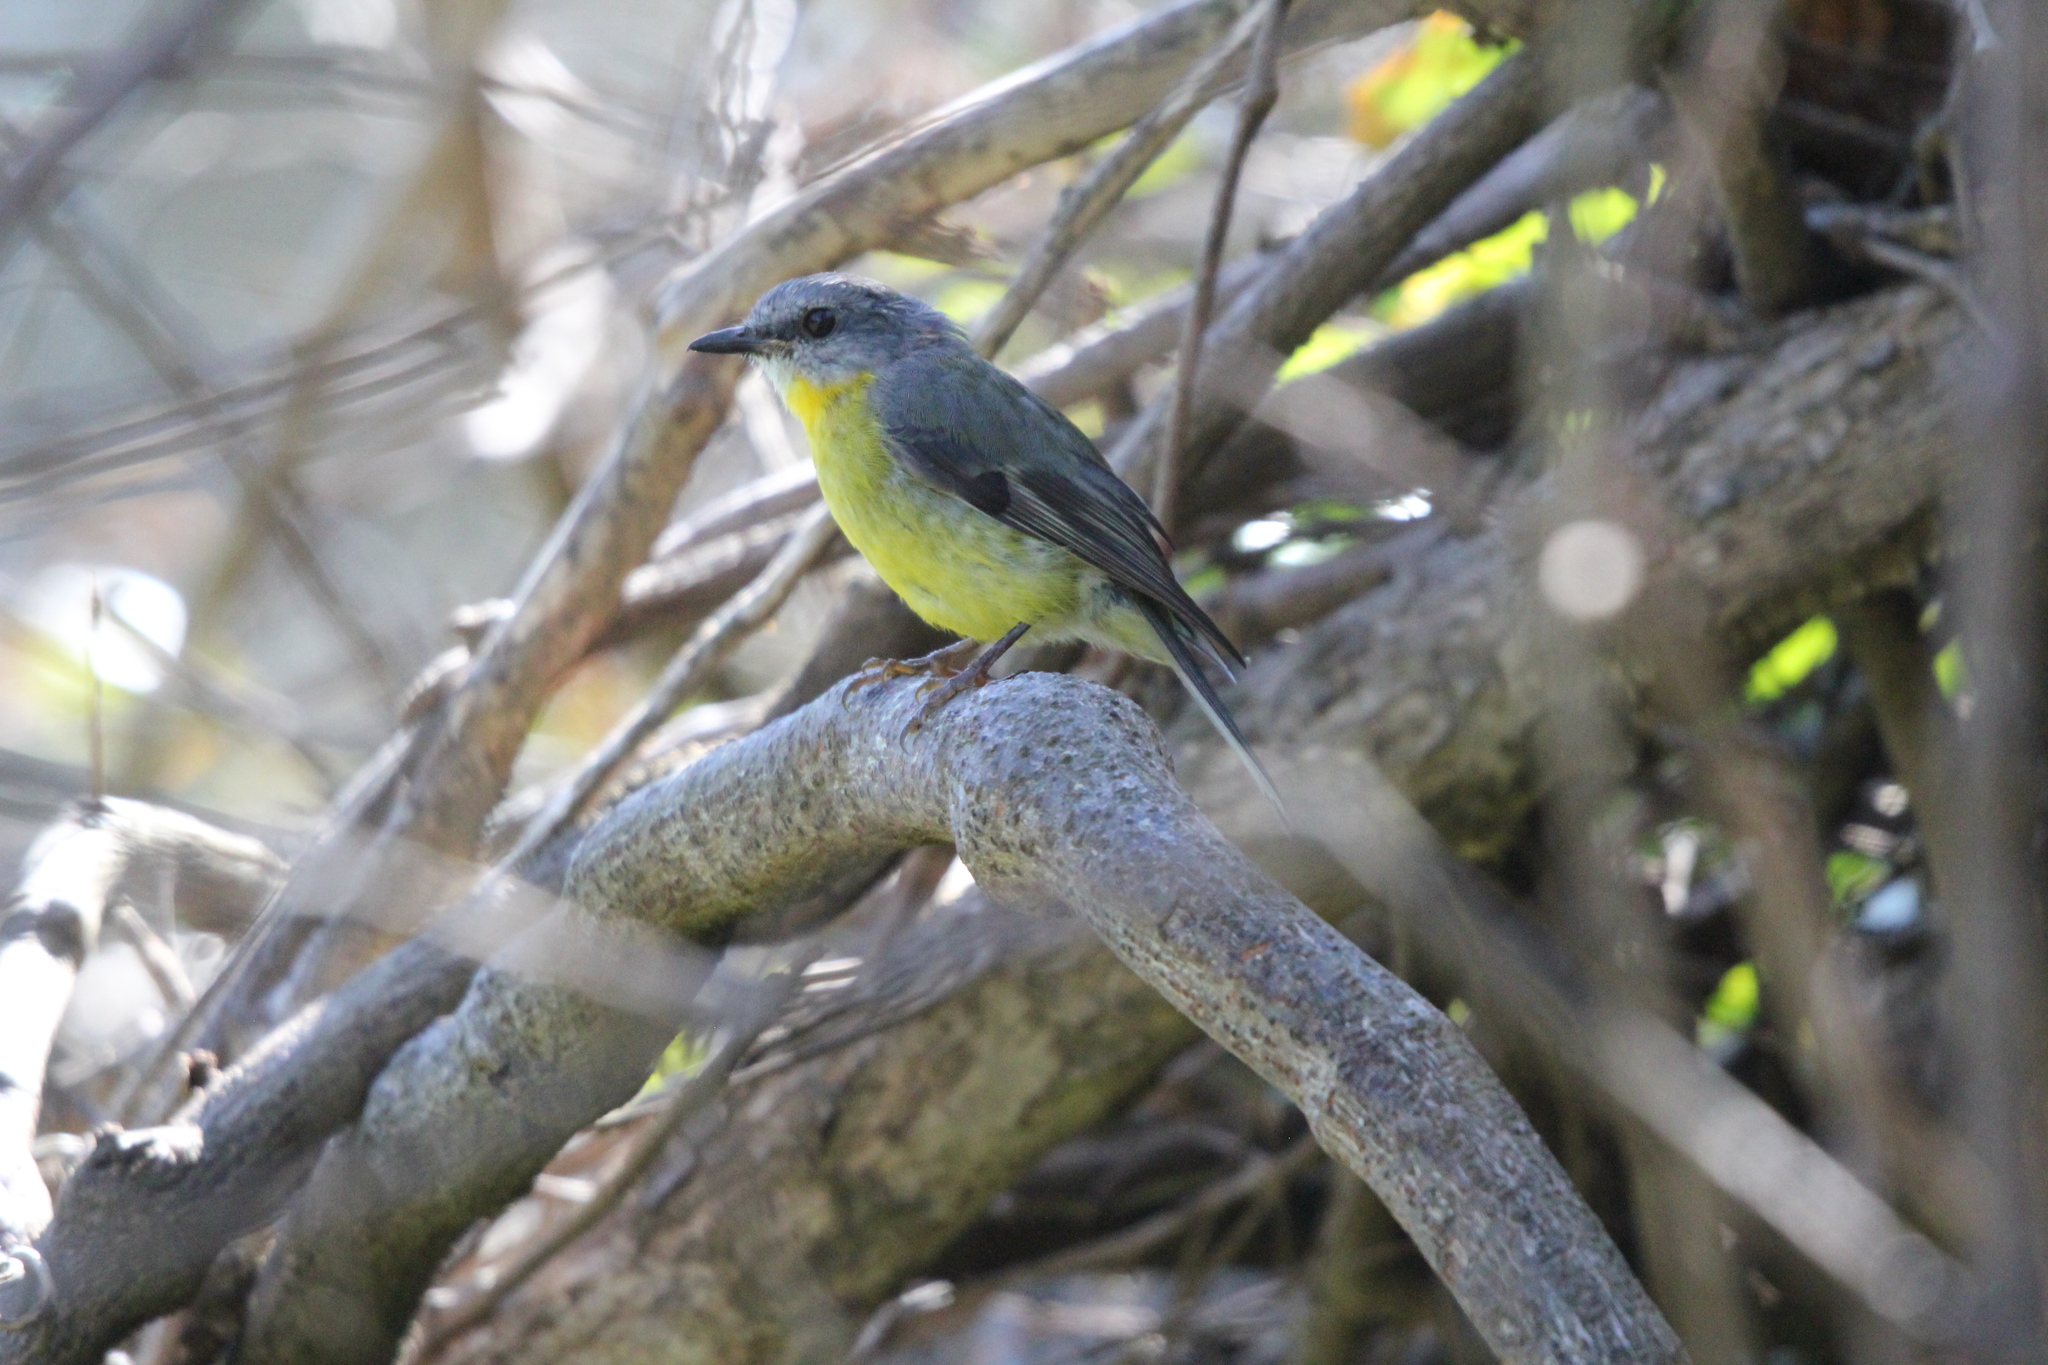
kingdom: Animalia
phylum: Chordata
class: Aves
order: Passeriformes
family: Petroicidae
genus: Eopsaltria
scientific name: Eopsaltria australis
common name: Eastern yellow robin
